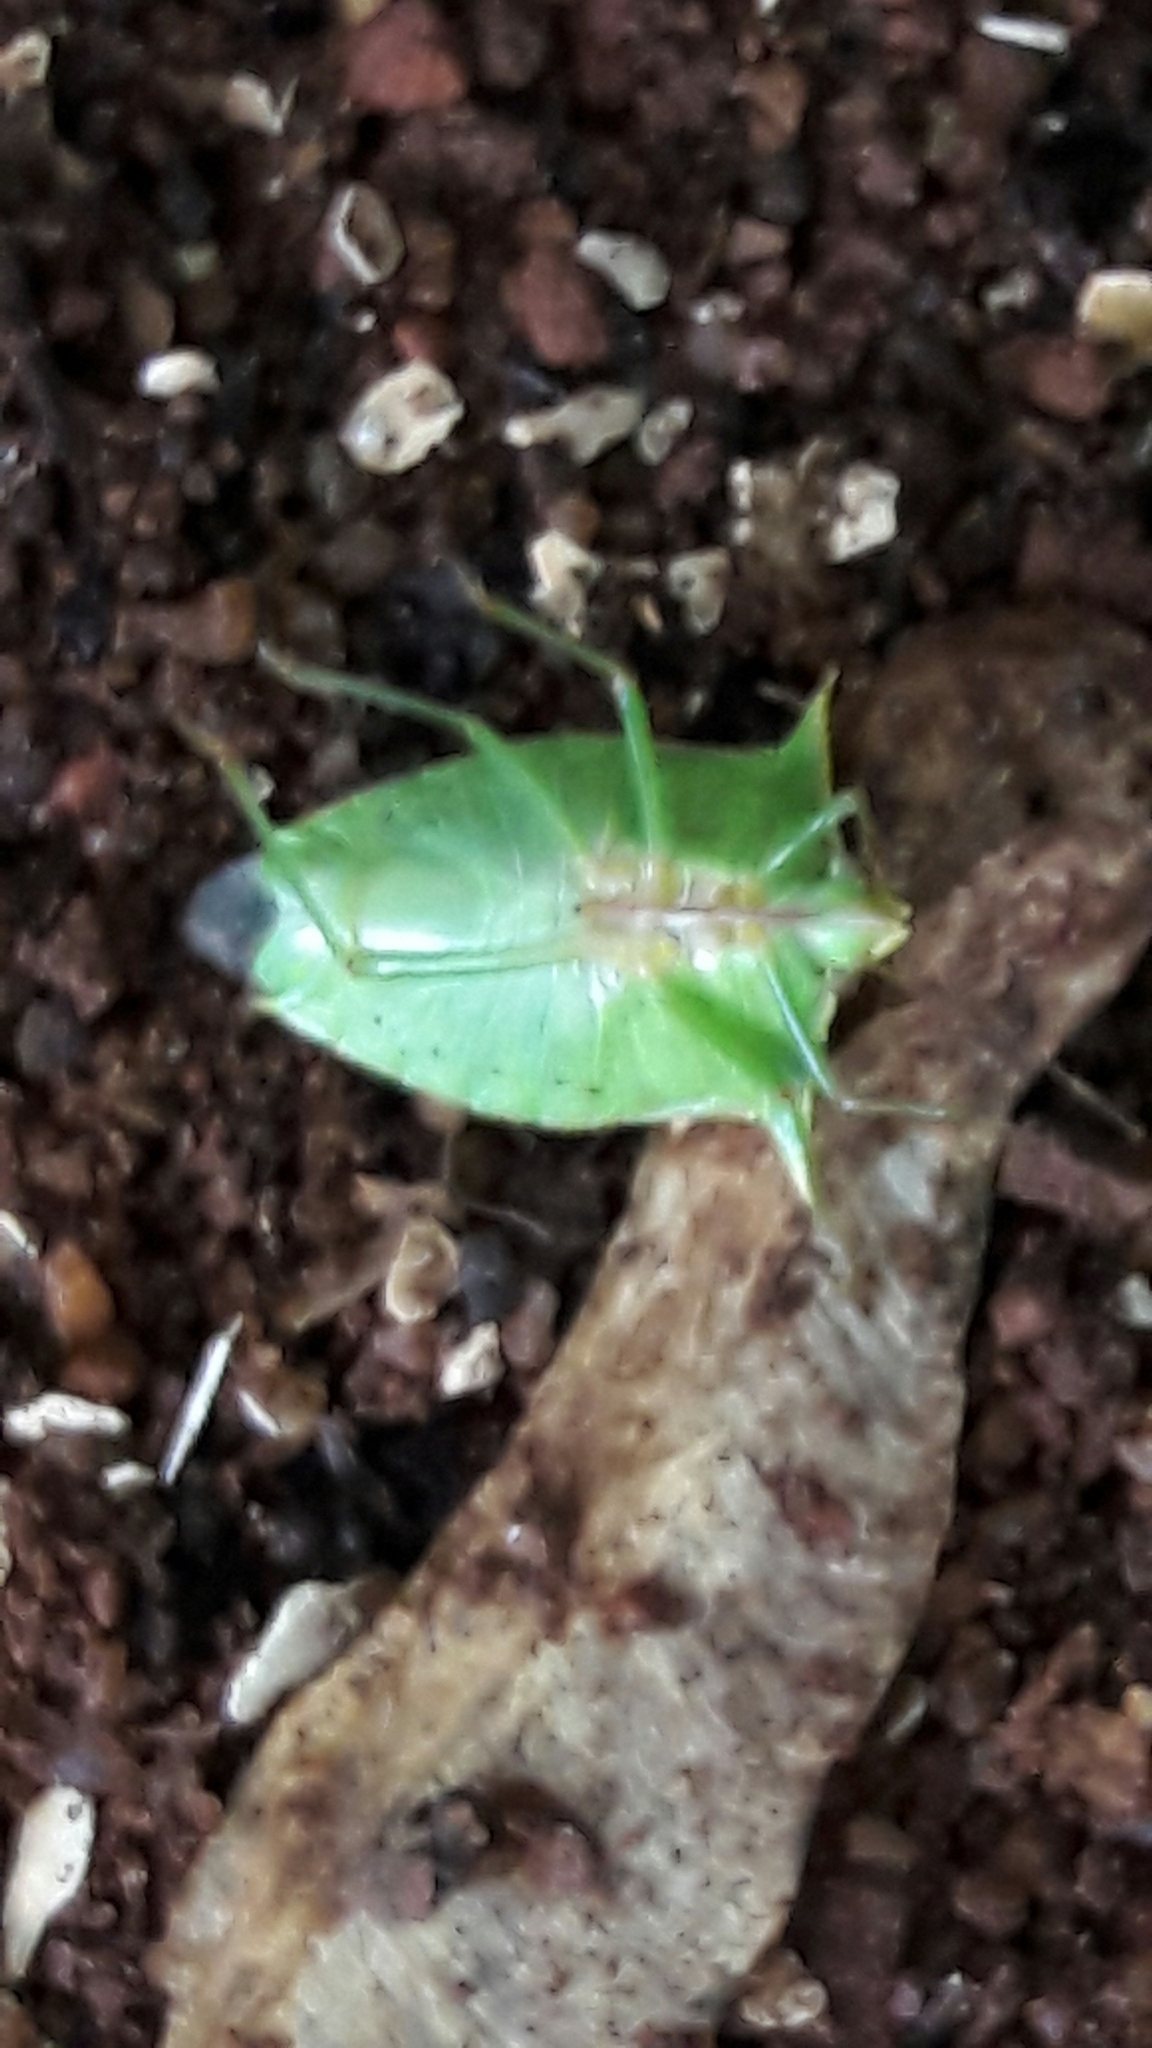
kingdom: Animalia
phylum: Arthropoda
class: Insecta
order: Hemiptera
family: Pentatomidae
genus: Loxa
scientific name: Loxa viridis
